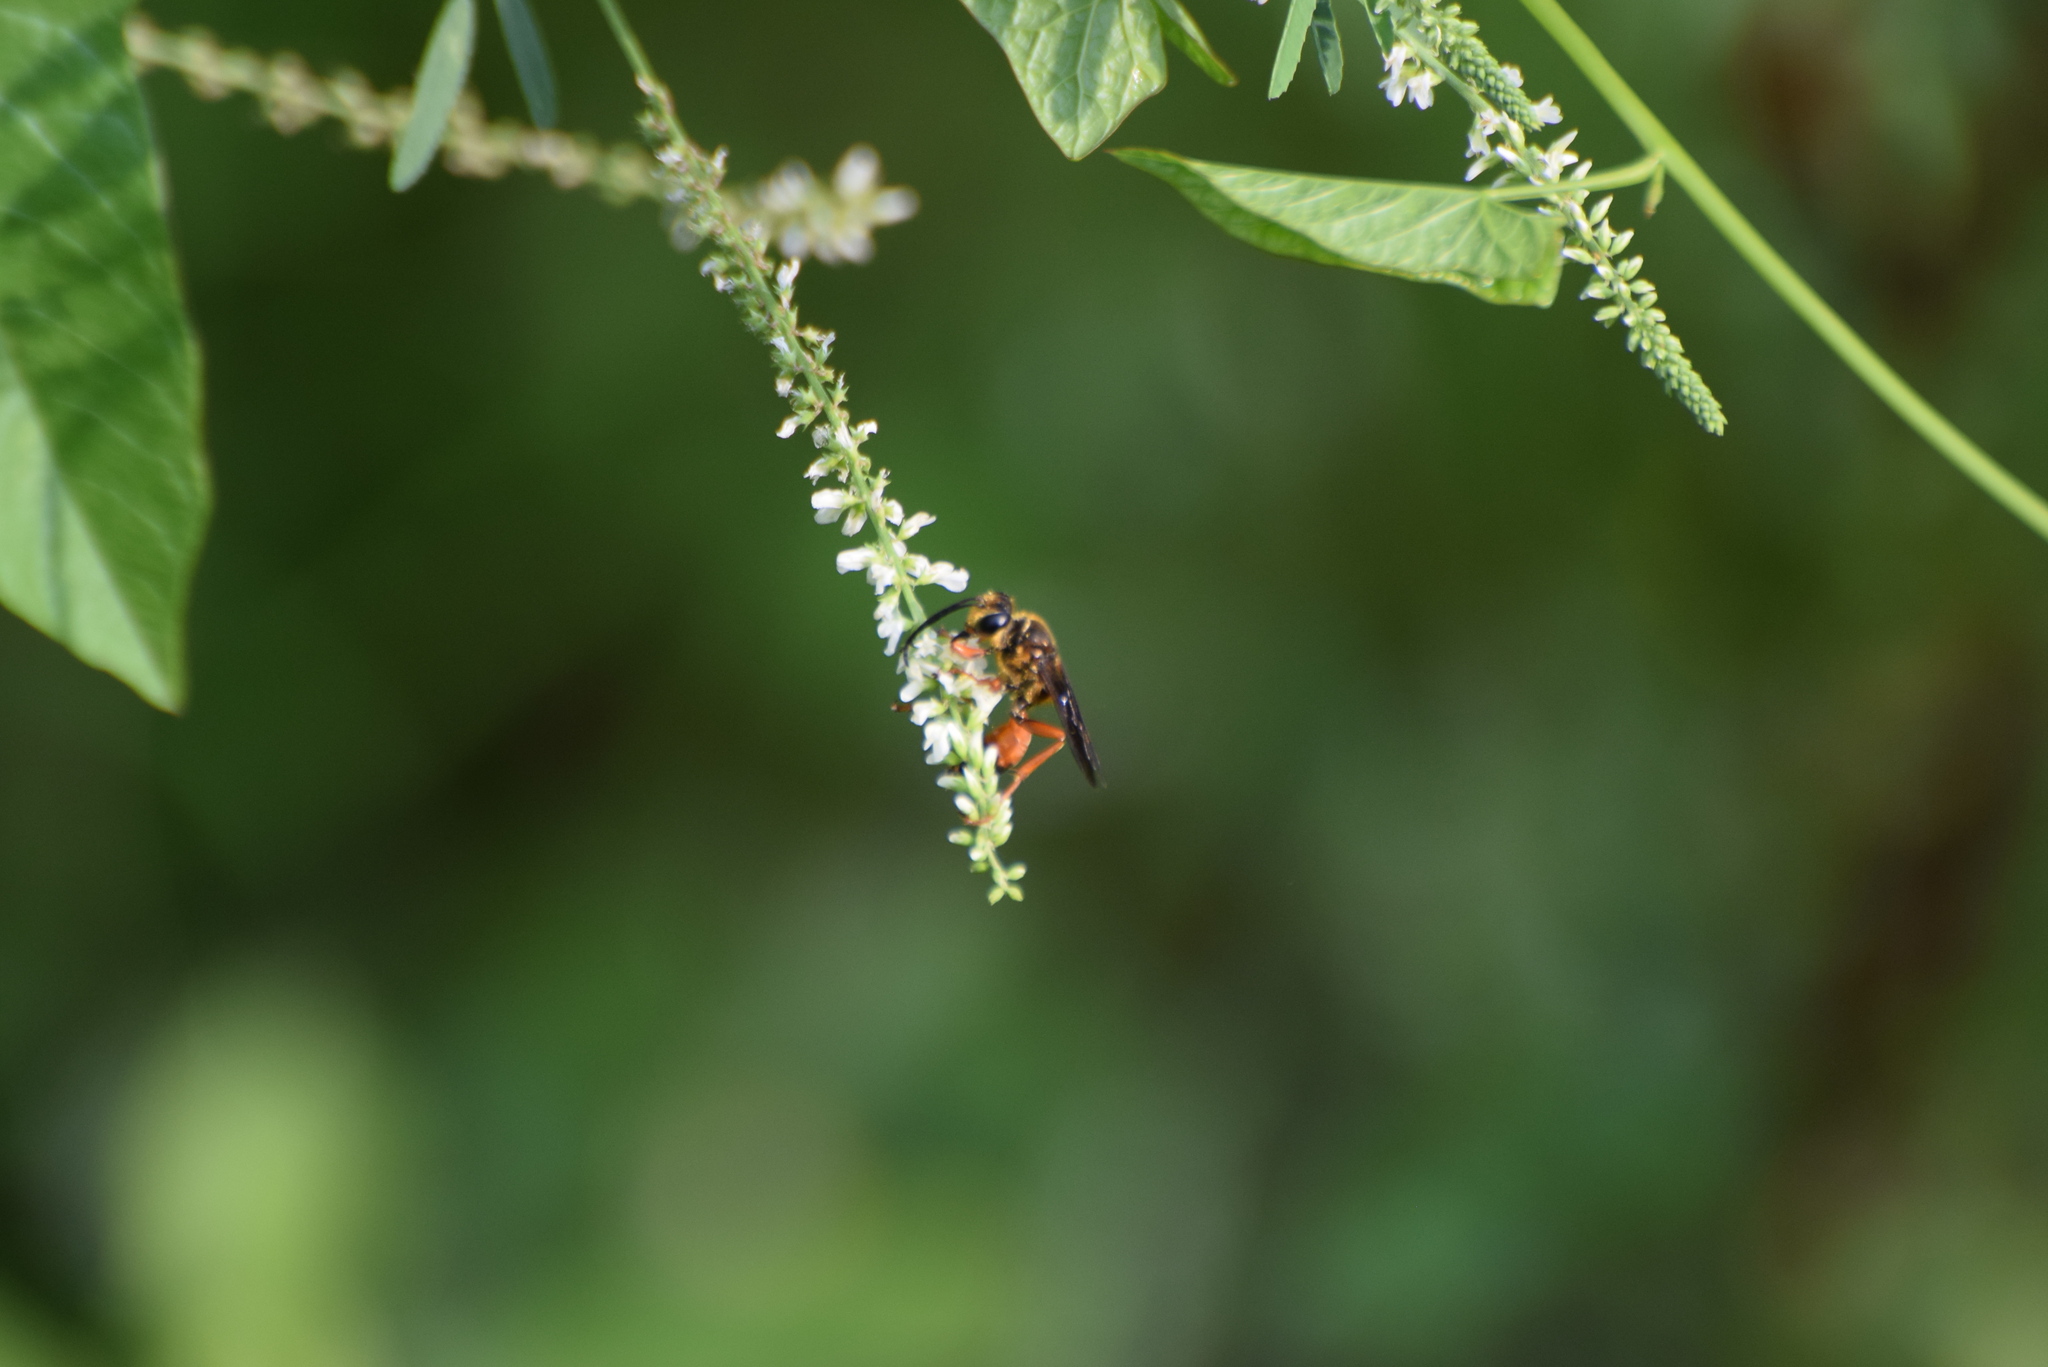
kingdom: Animalia
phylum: Arthropoda
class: Insecta
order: Hymenoptera
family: Sphecidae
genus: Sphex
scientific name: Sphex ichneumoneus
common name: Great golden digger wasp
